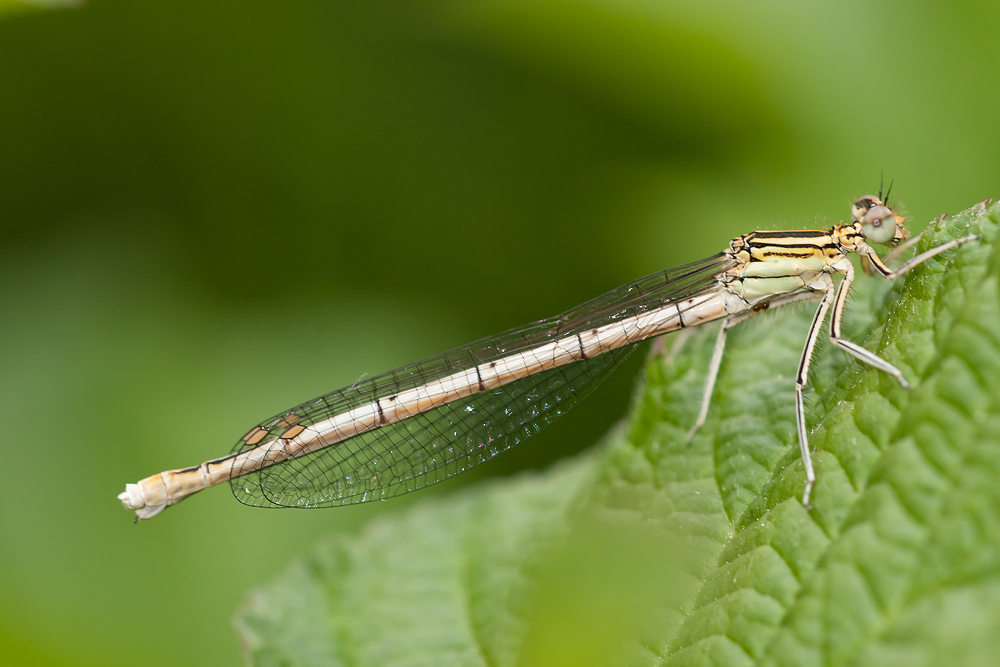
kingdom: Animalia
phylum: Arthropoda
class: Insecta
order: Odonata
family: Platycnemididae
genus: Platycnemis
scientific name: Platycnemis pennipes
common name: White-legged damselfly
